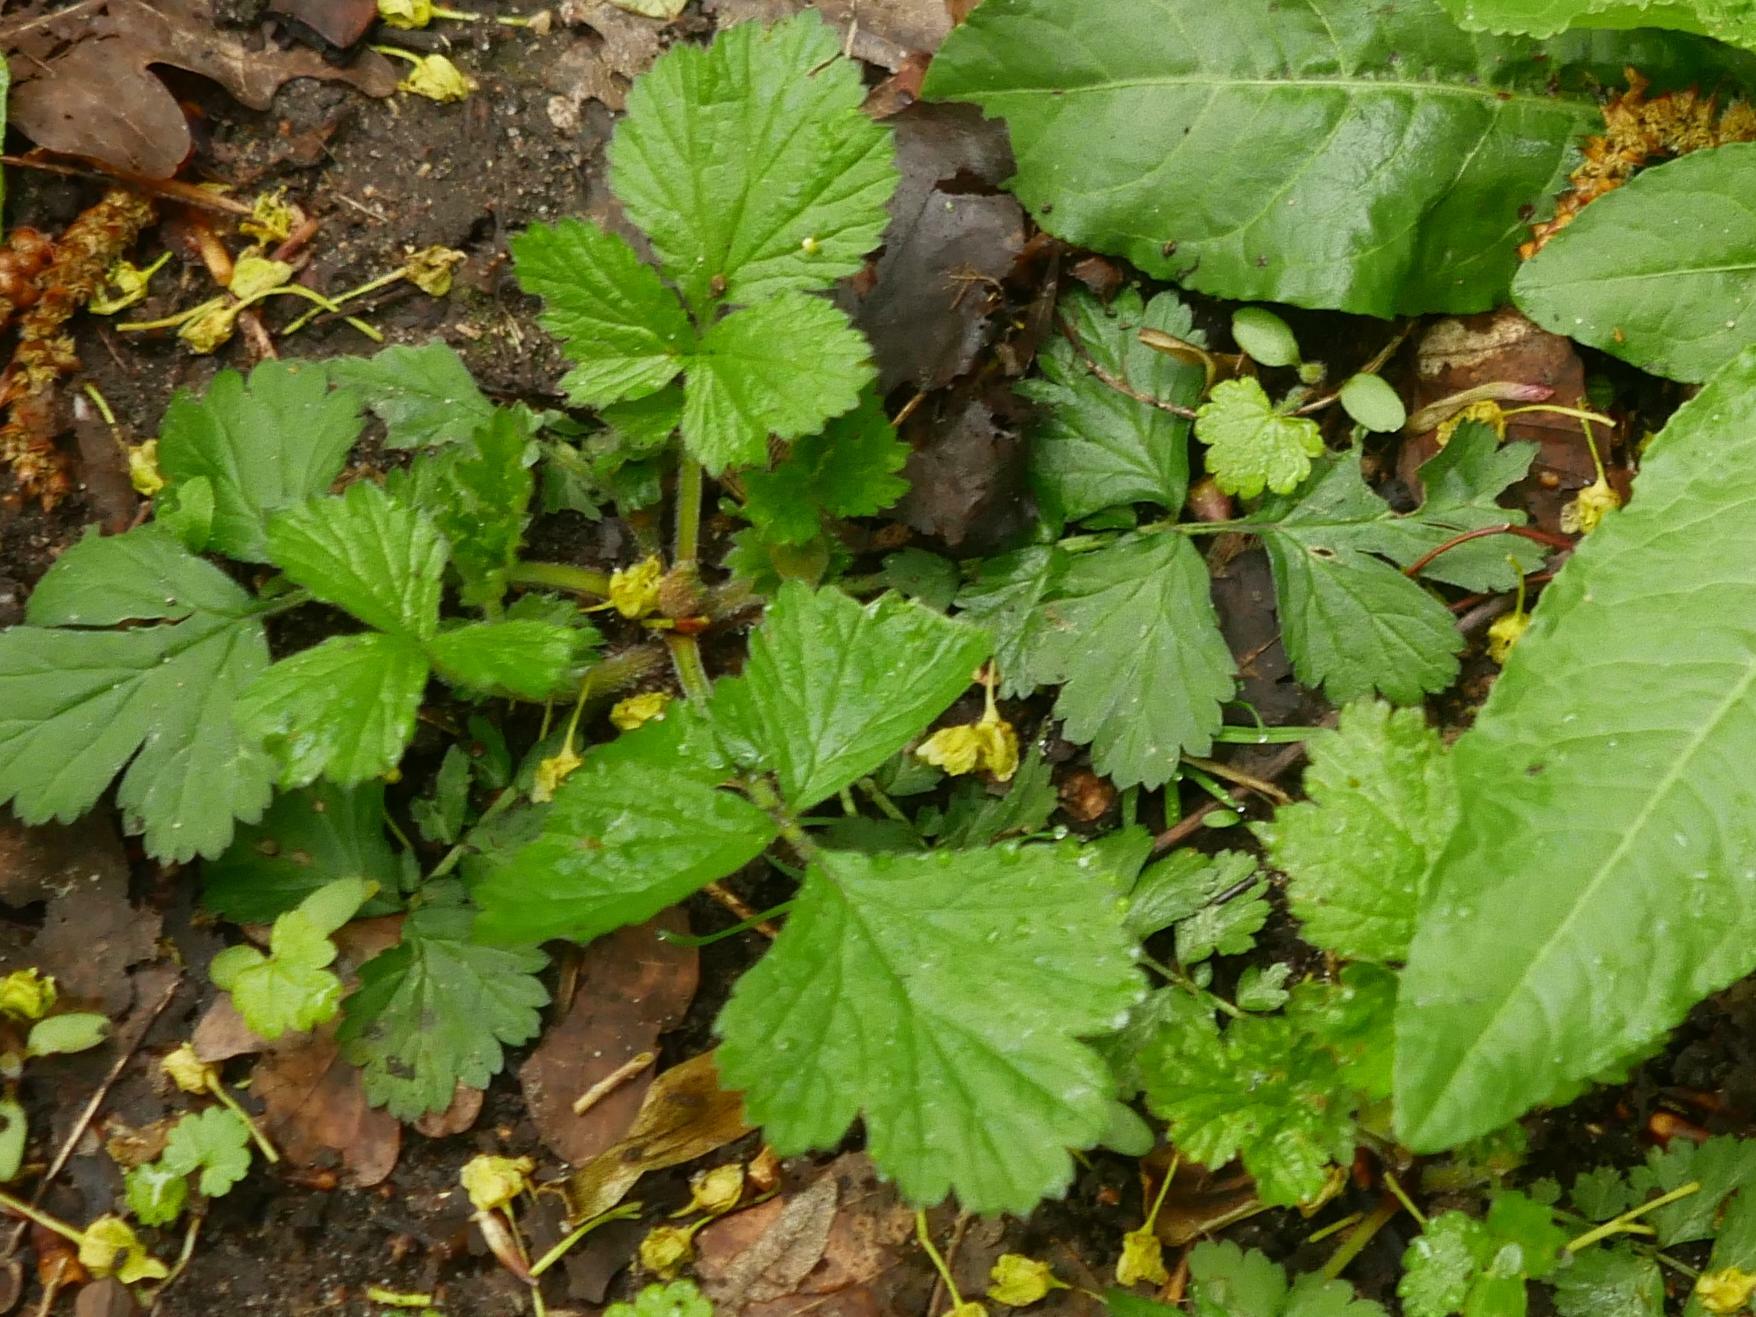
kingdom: Plantae
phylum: Tracheophyta
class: Magnoliopsida
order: Rosales
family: Rosaceae
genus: Geum
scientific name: Geum urbanum
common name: Wood avens
